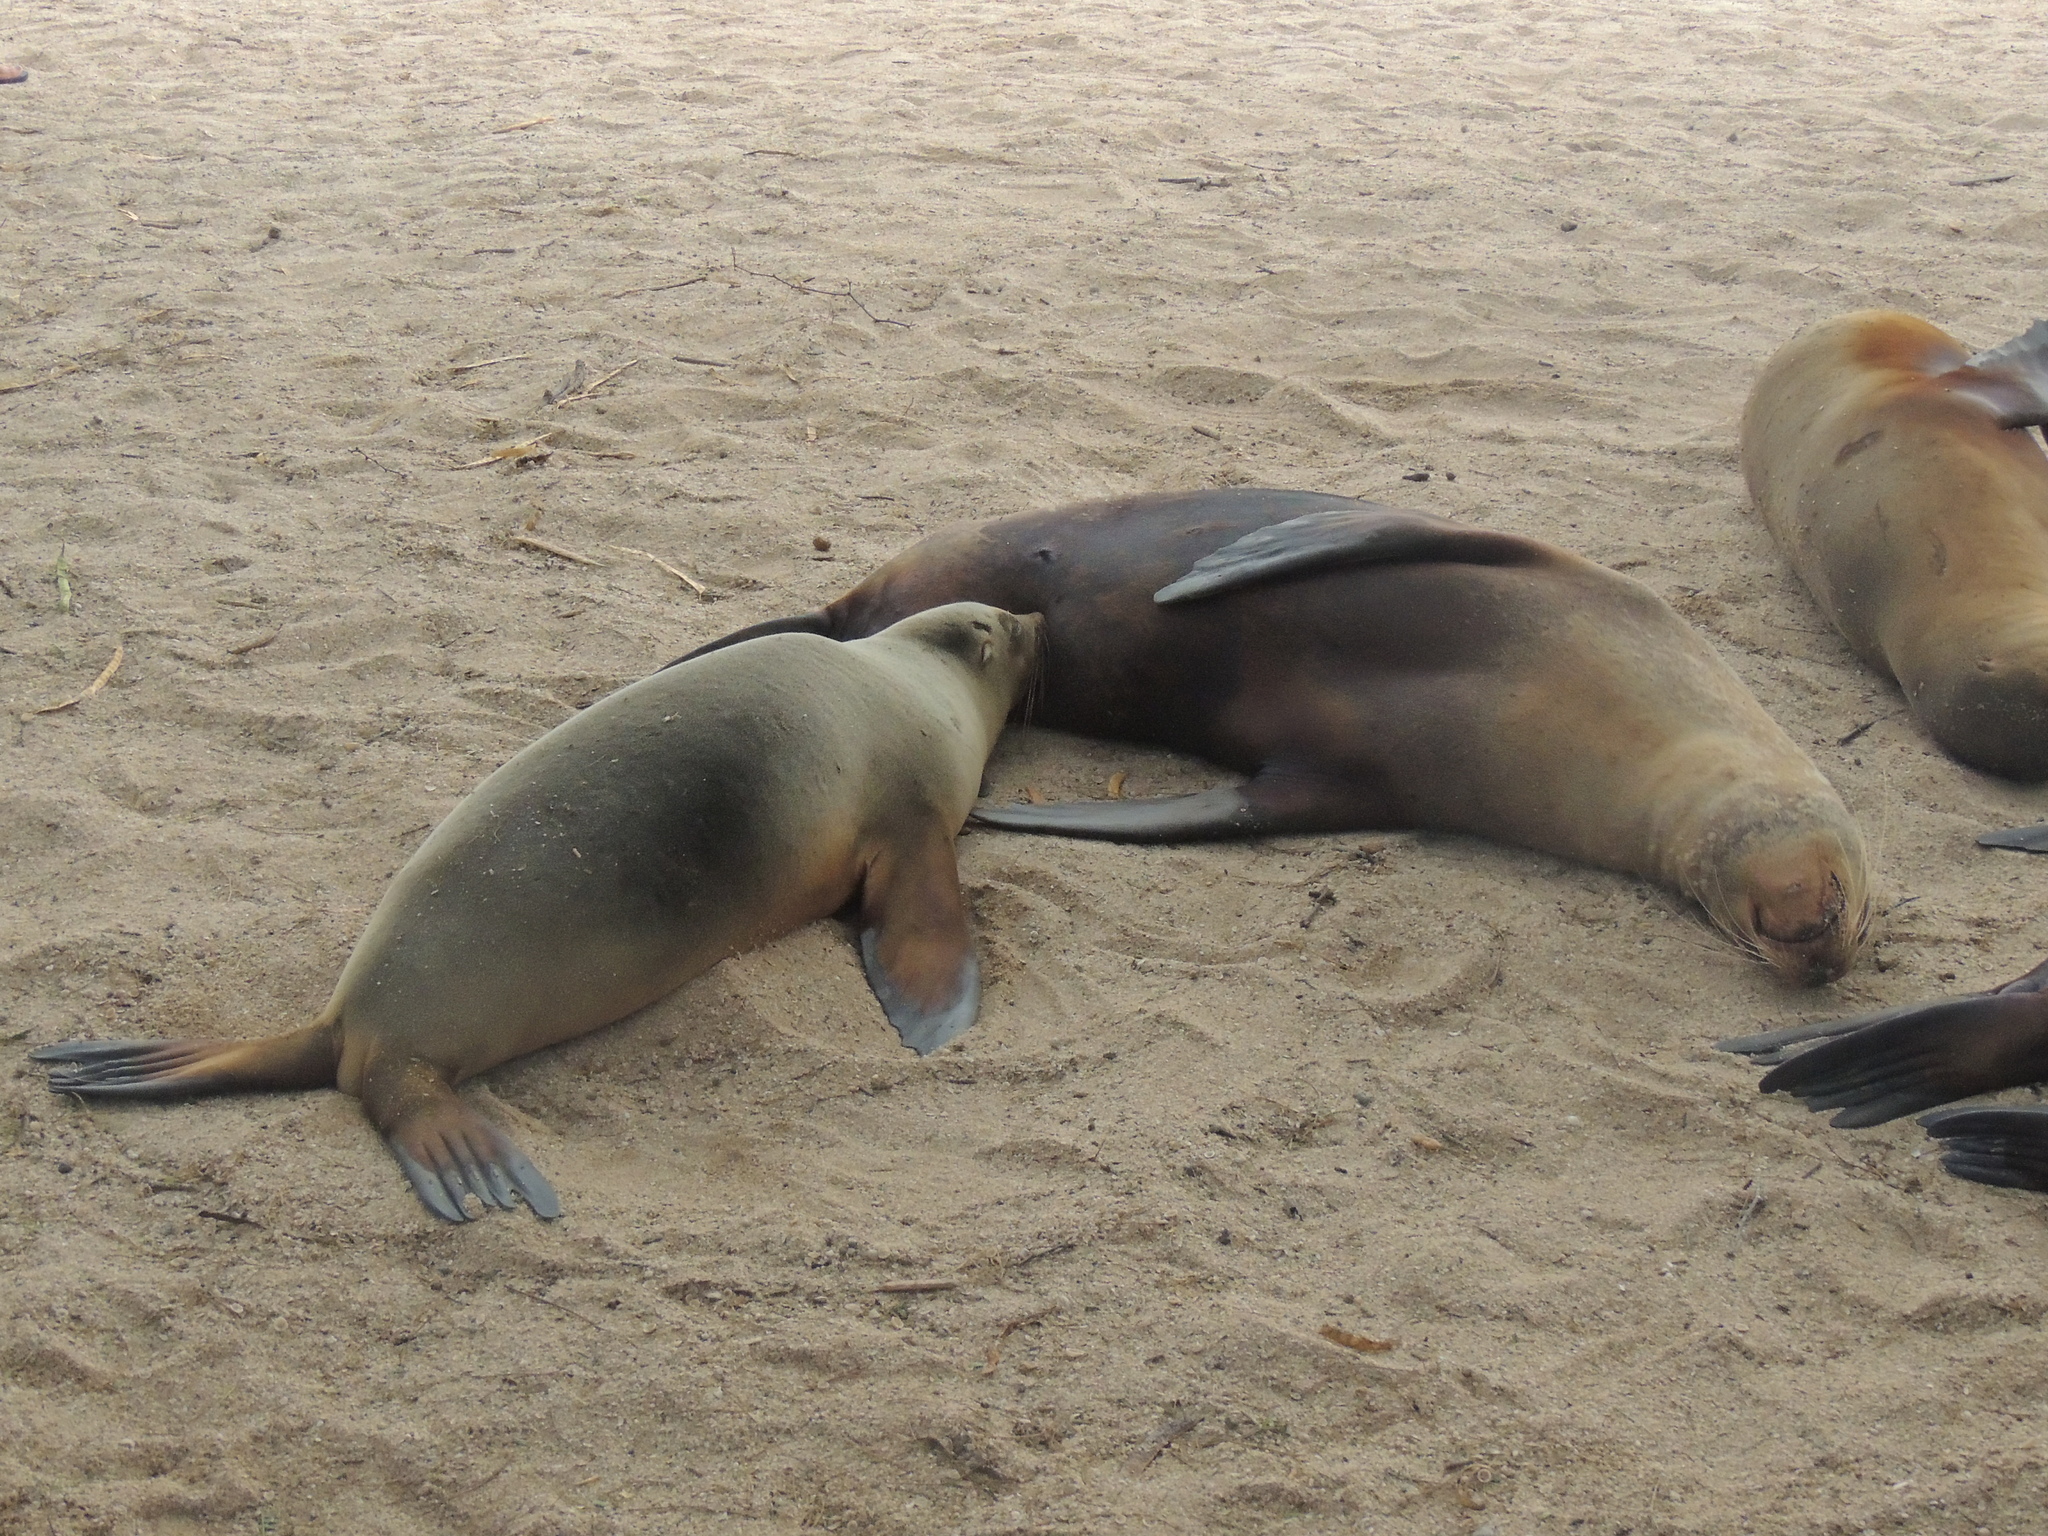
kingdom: Animalia
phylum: Chordata
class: Mammalia
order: Carnivora
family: Otariidae
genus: Zalophus
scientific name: Zalophus wollebaeki
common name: Galapagos sea lion
